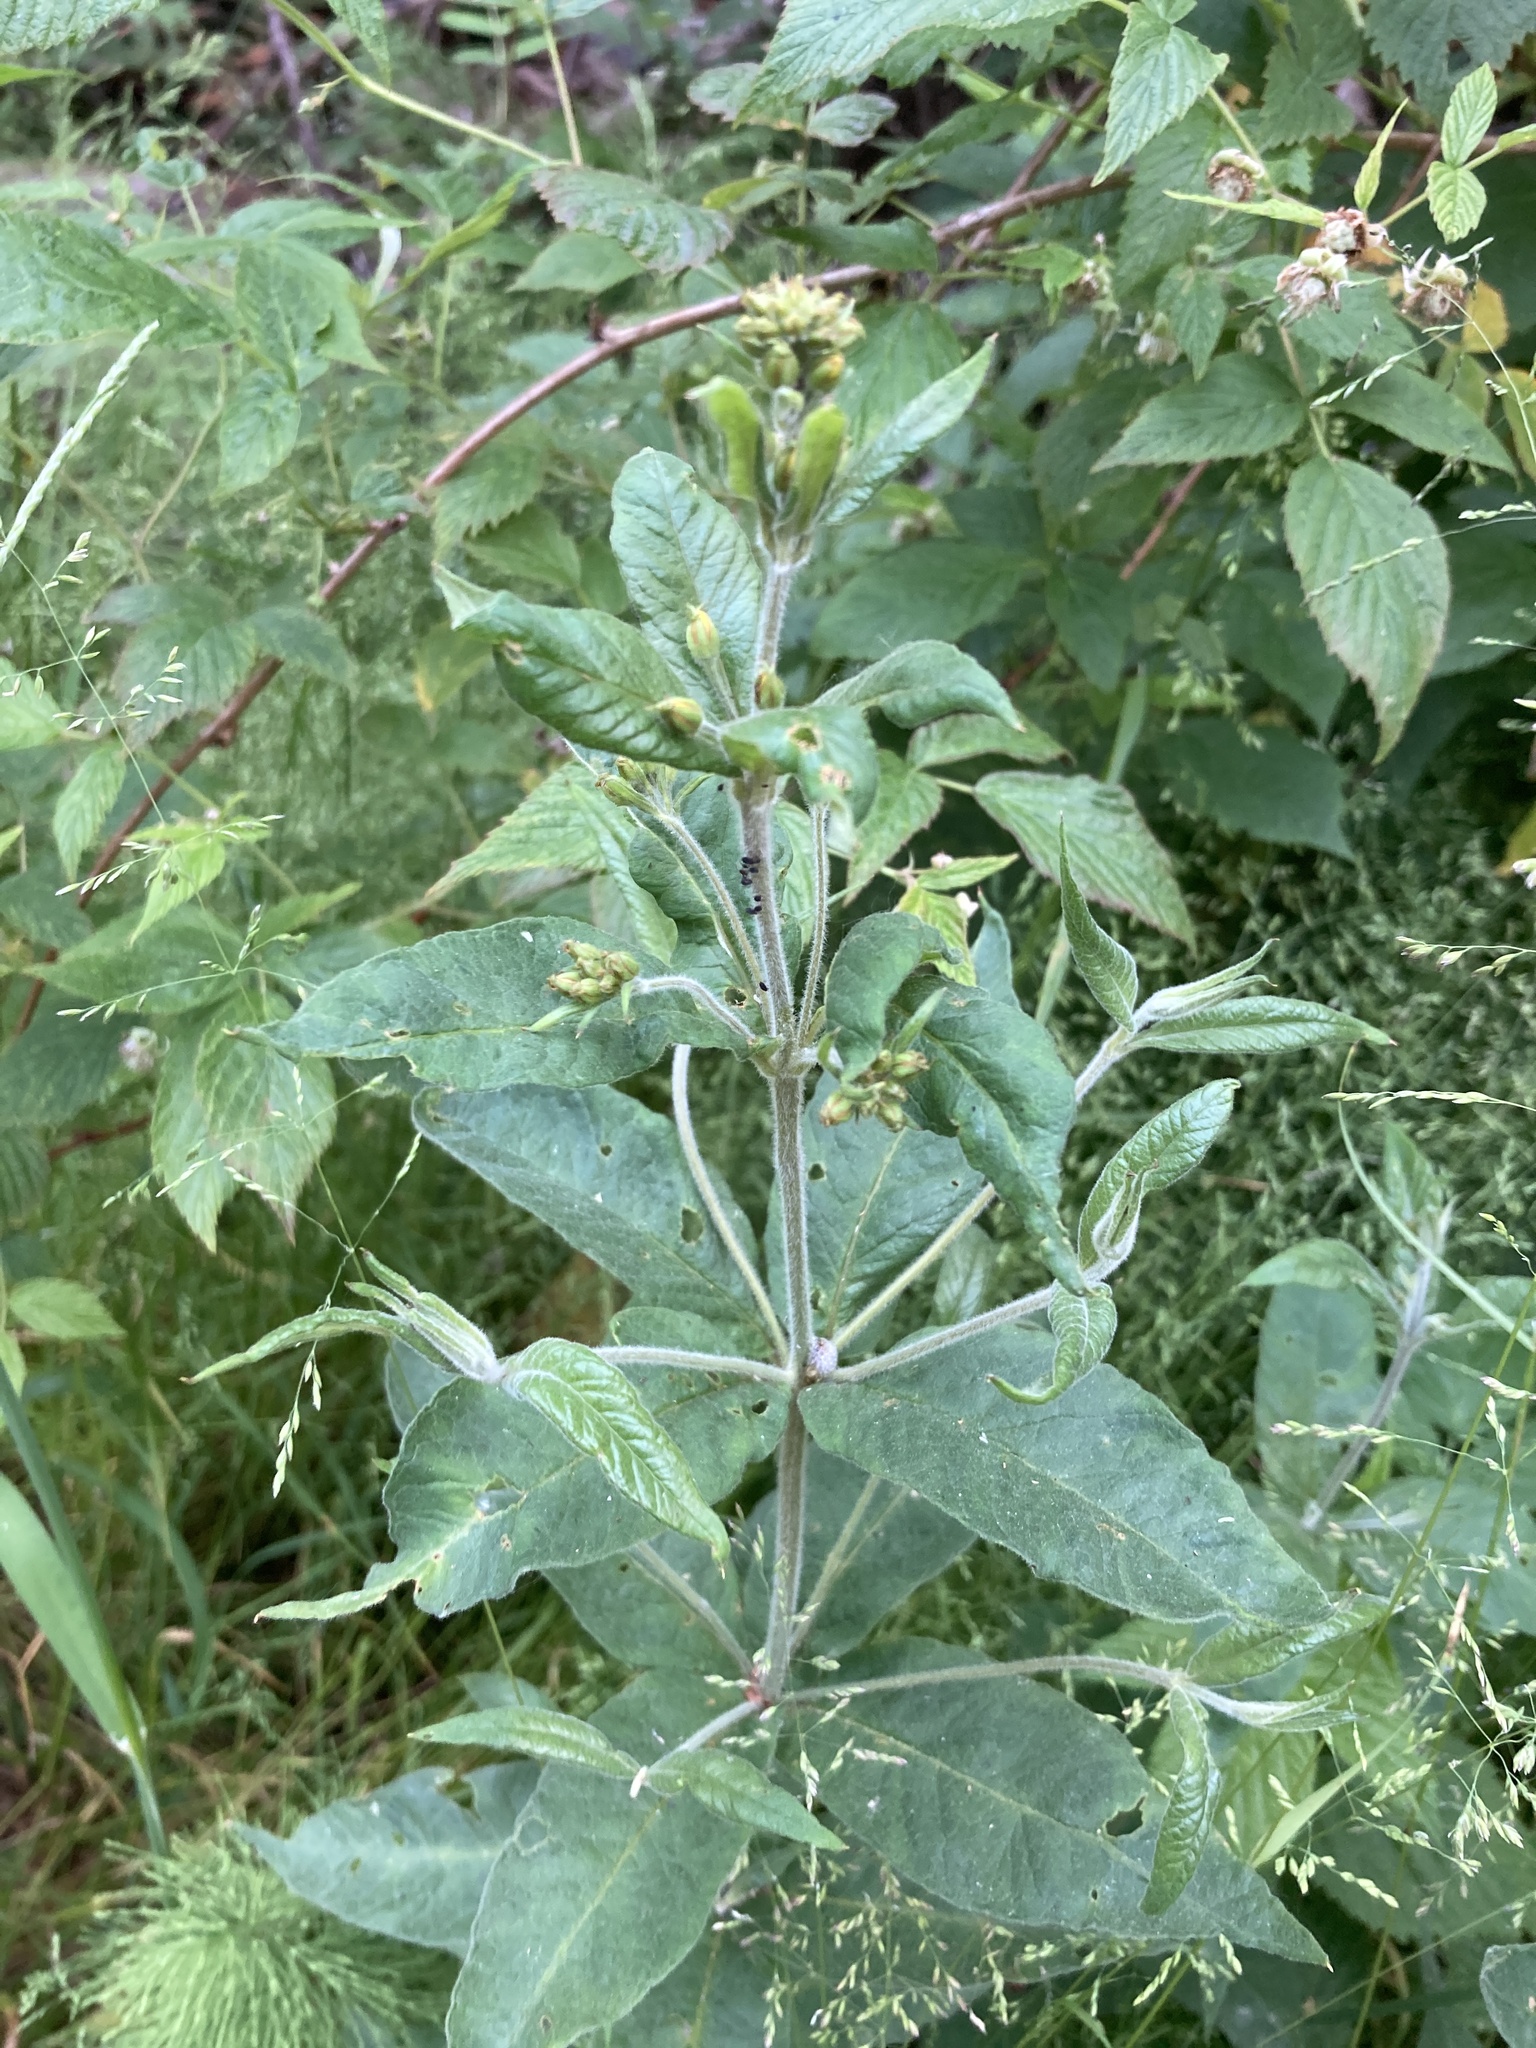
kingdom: Plantae
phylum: Tracheophyta
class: Magnoliopsida
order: Ericales
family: Primulaceae
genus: Lysimachia
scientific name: Lysimachia vulgaris
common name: Yellow loosestrife
